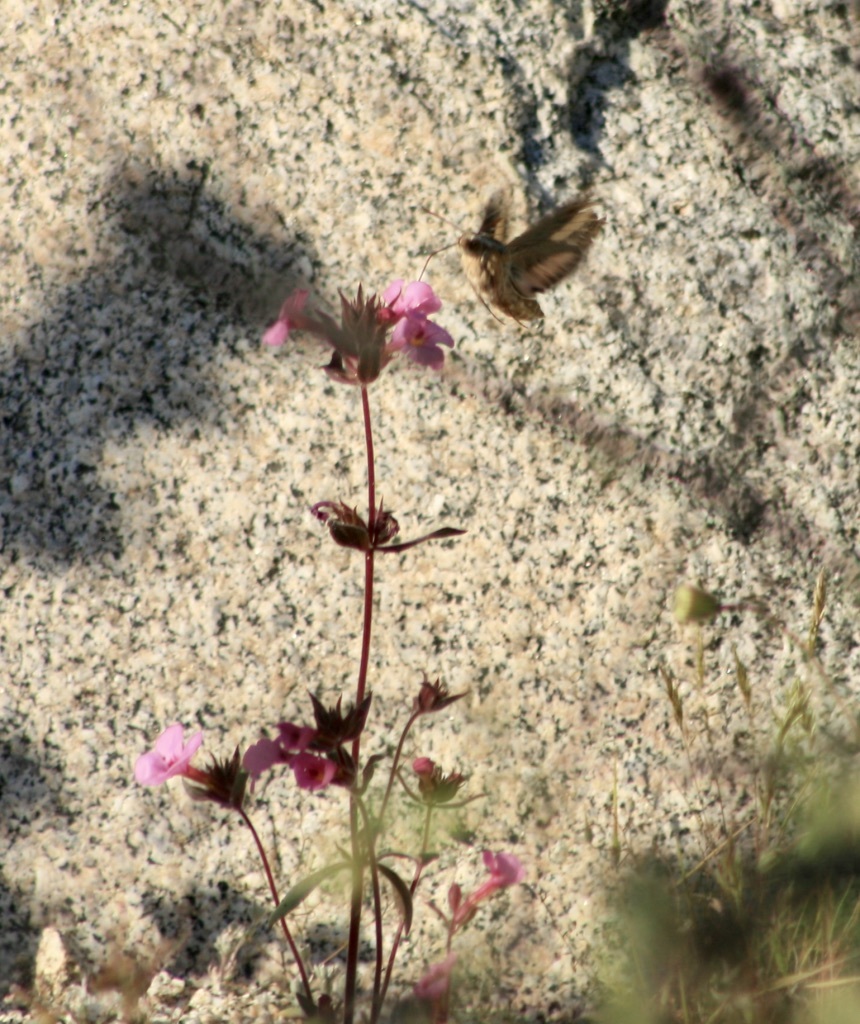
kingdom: Animalia
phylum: Arthropoda
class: Insecta
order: Lepidoptera
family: Sphingidae
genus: Hyles
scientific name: Hyles lineata
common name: White-lined sphinx
